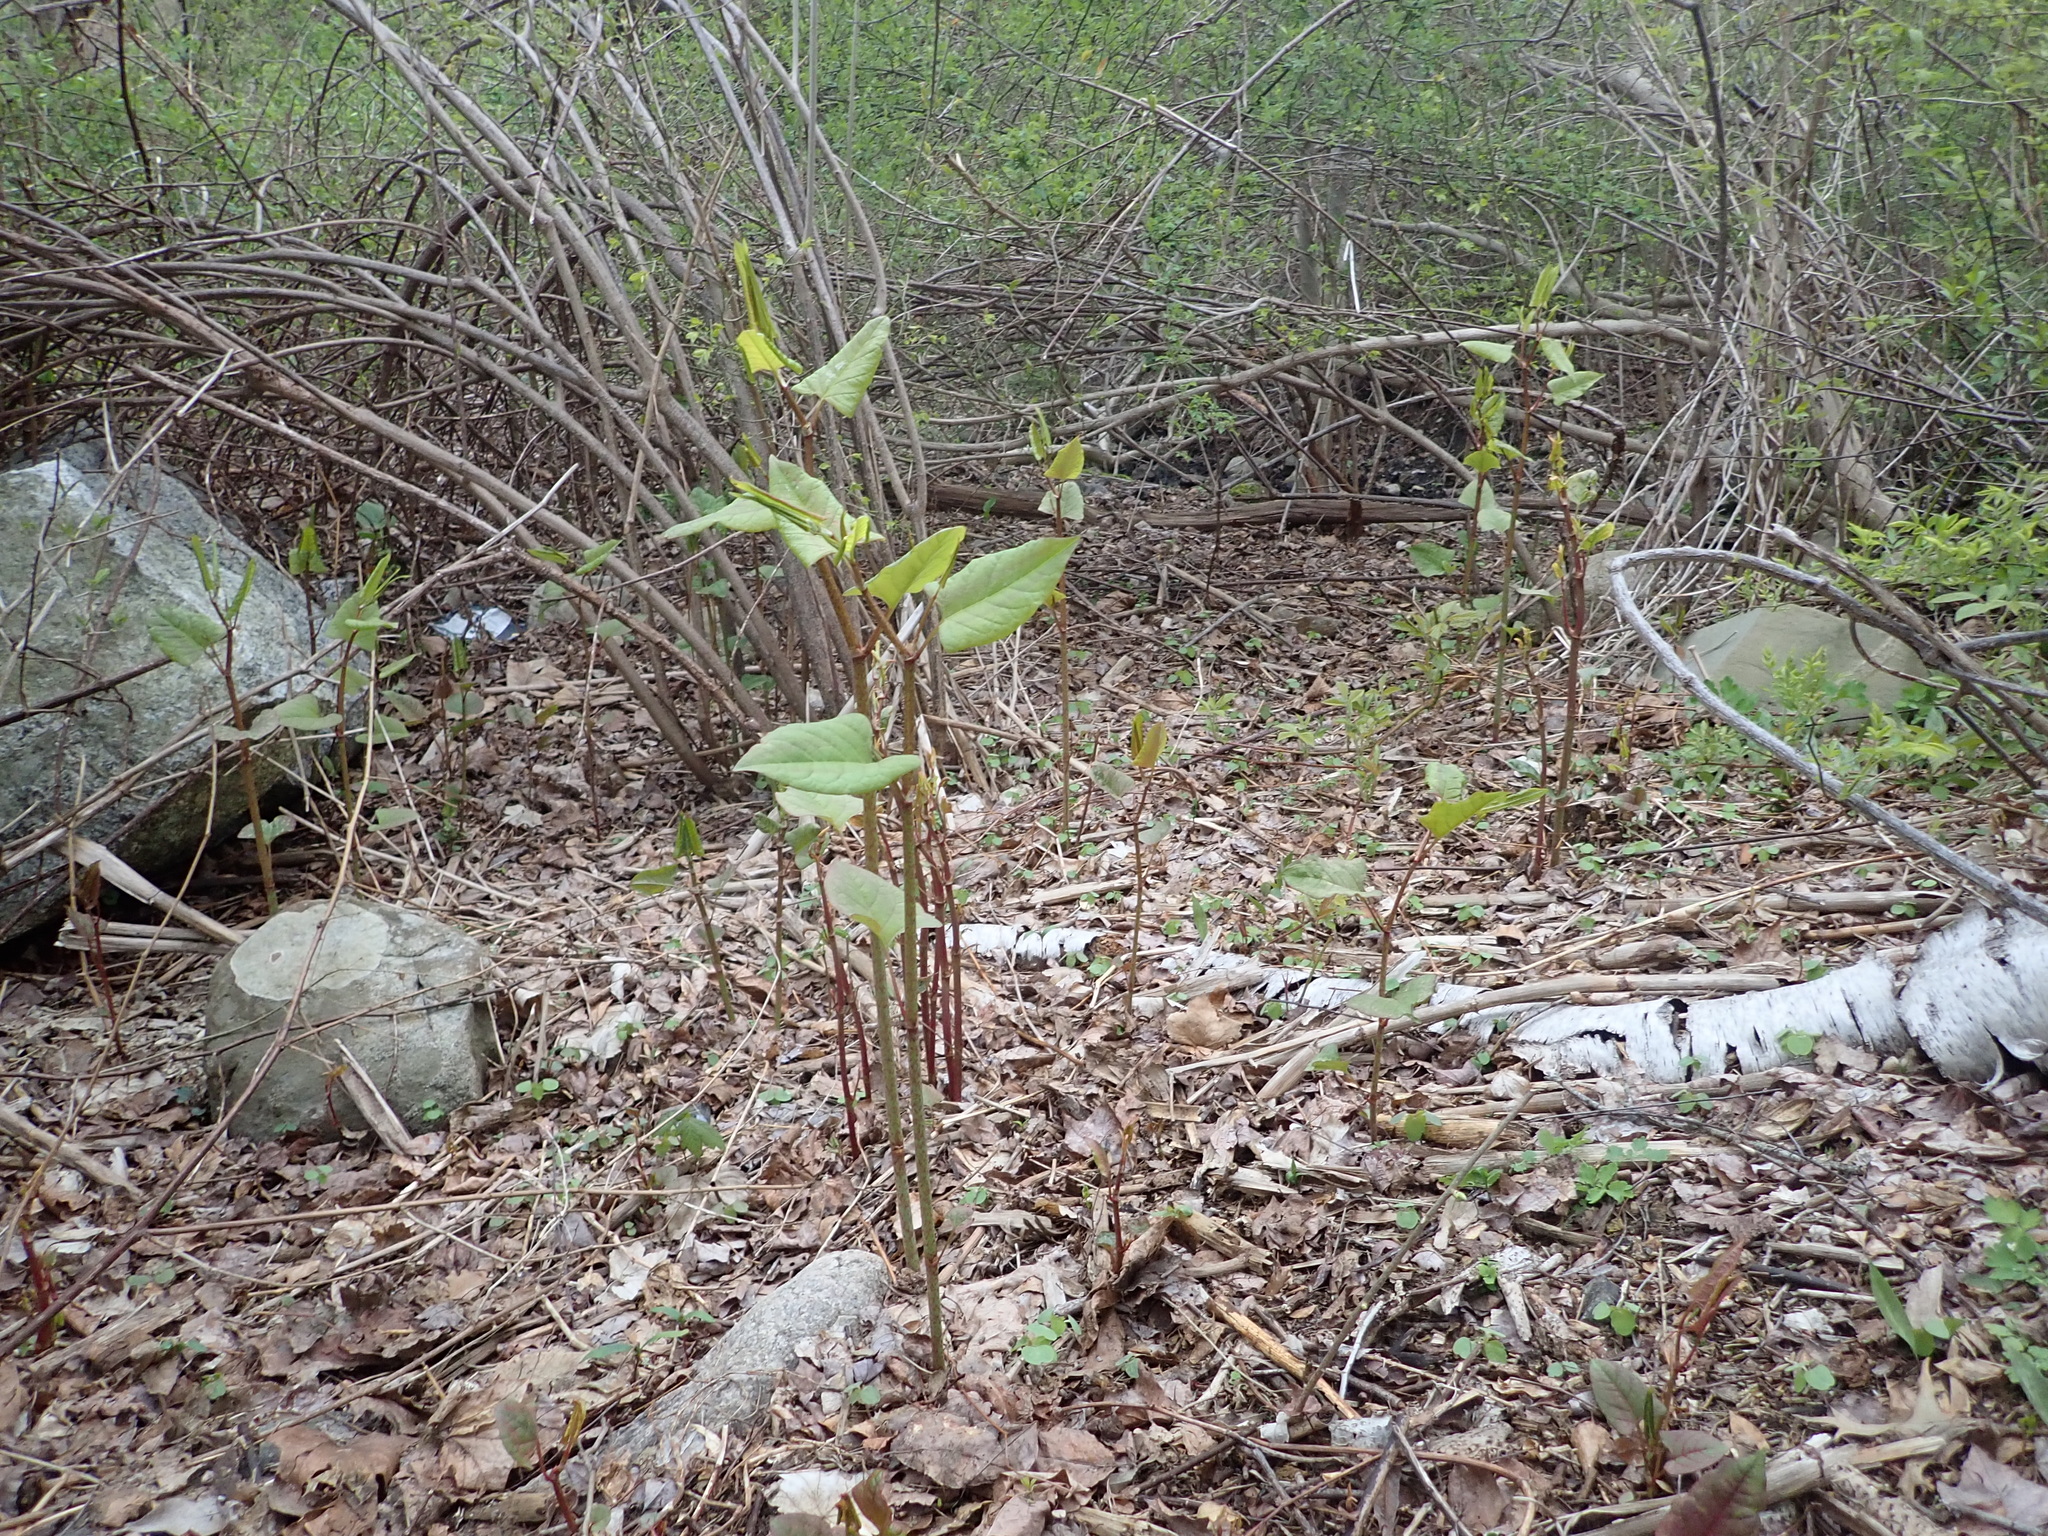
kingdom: Plantae
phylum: Tracheophyta
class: Magnoliopsida
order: Caryophyllales
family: Polygonaceae
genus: Reynoutria
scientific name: Reynoutria japonica
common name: Japanese knotweed
